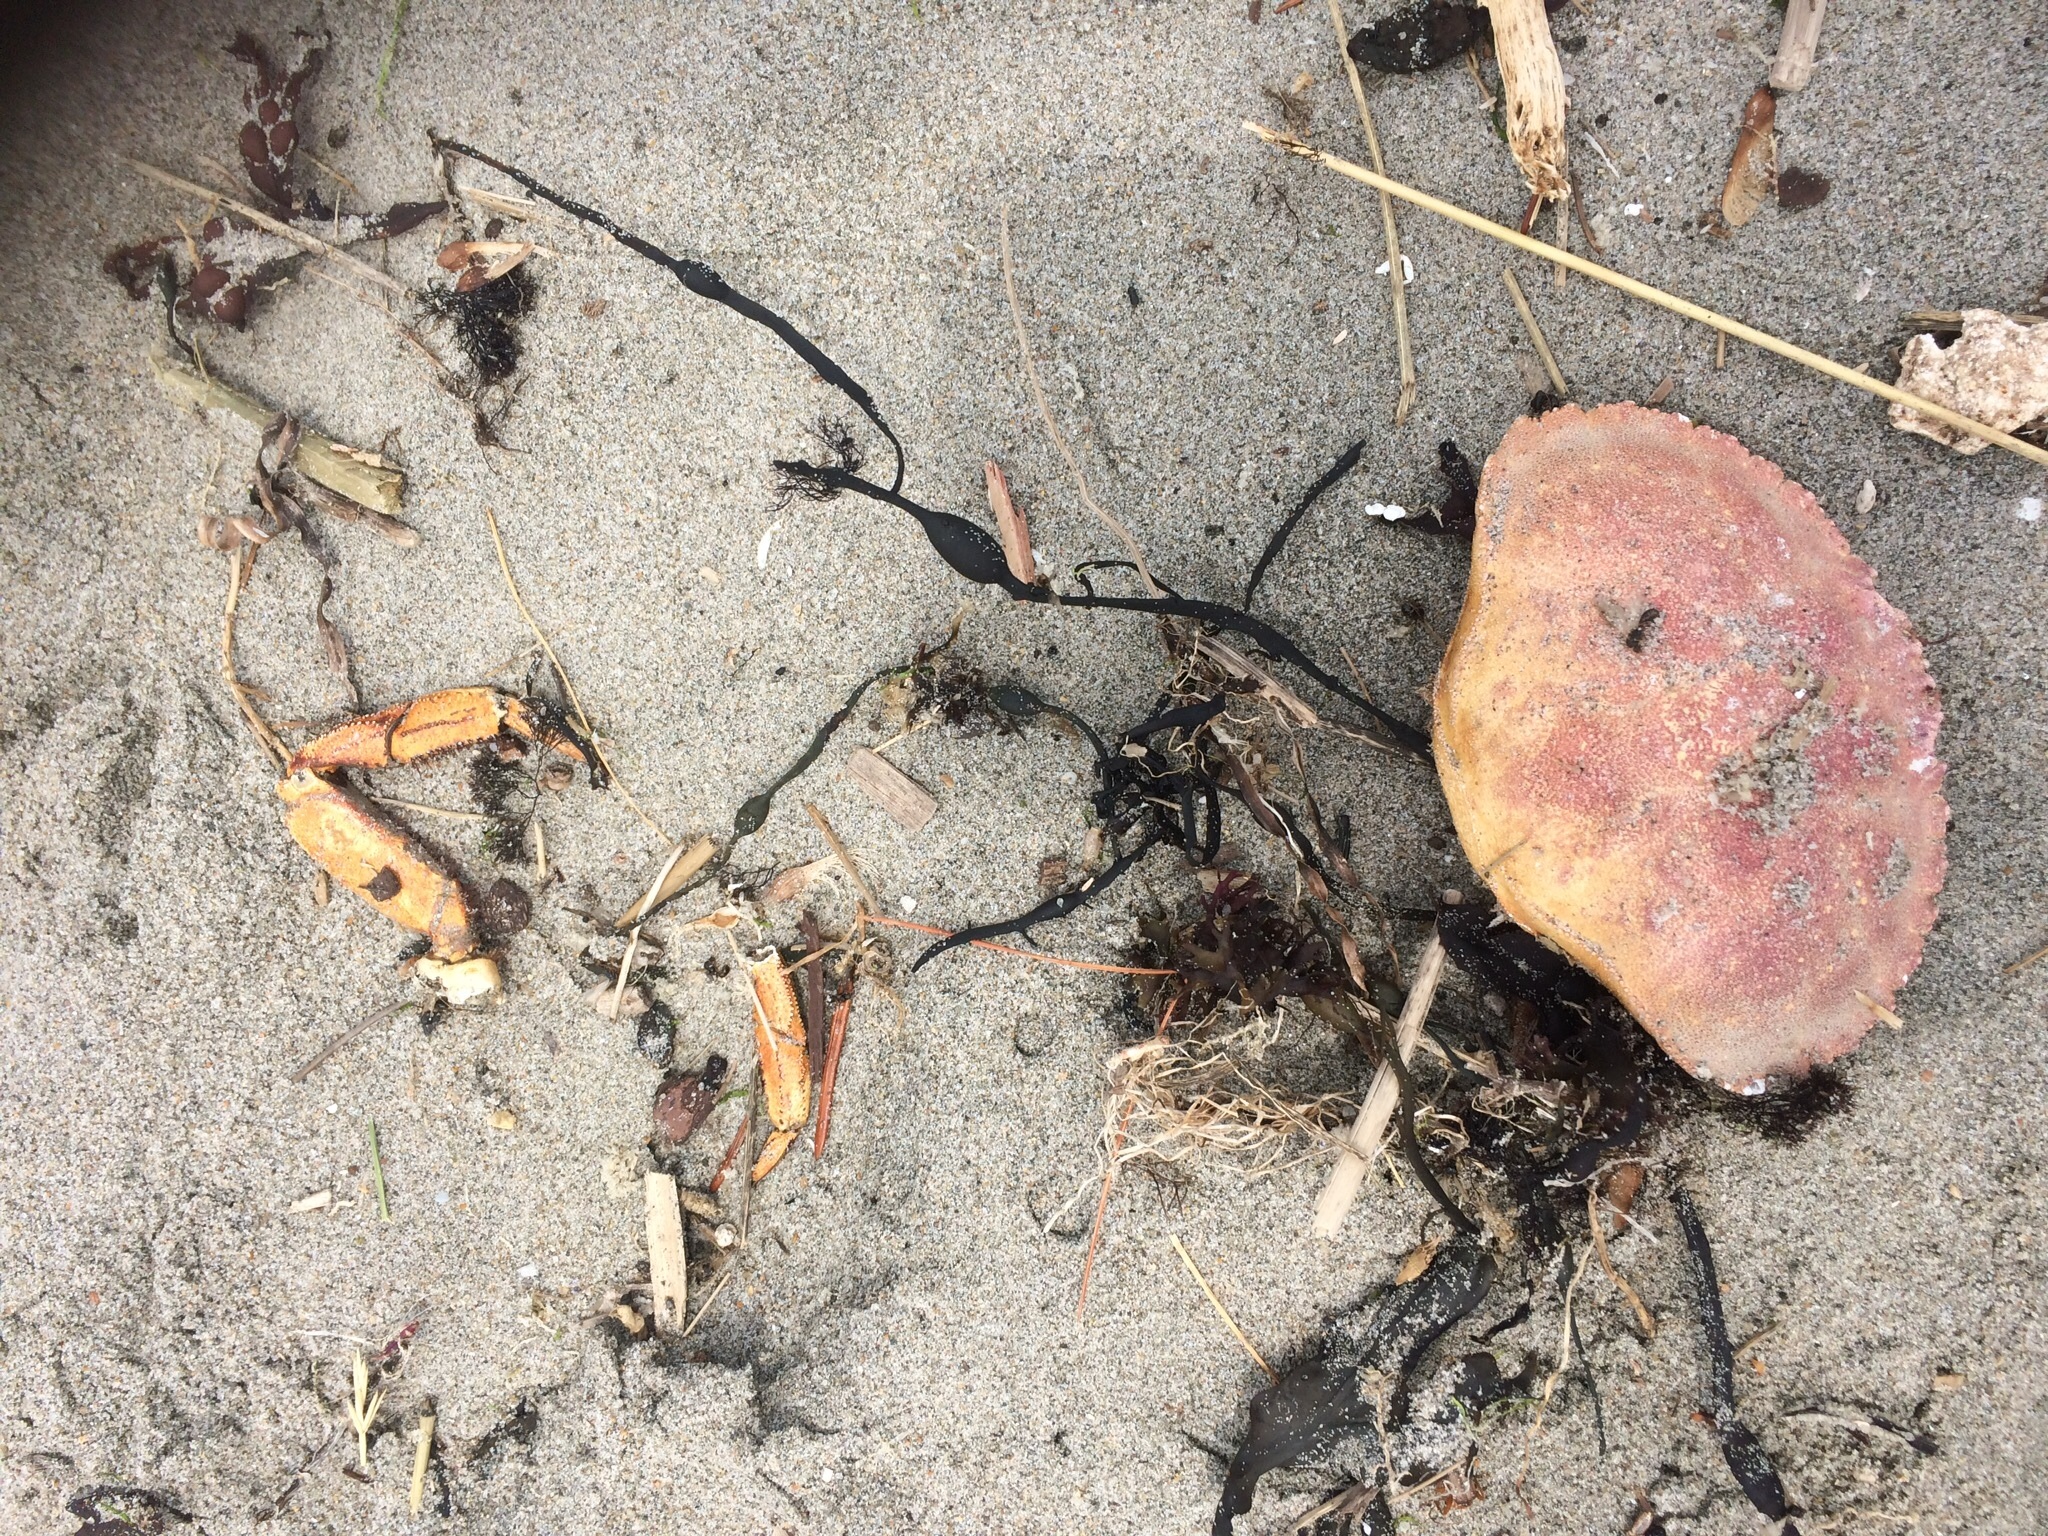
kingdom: Animalia
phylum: Arthropoda
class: Malacostraca
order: Decapoda
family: Cancridae
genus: Cancer
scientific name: Cancer borealis
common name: Jonah crab
